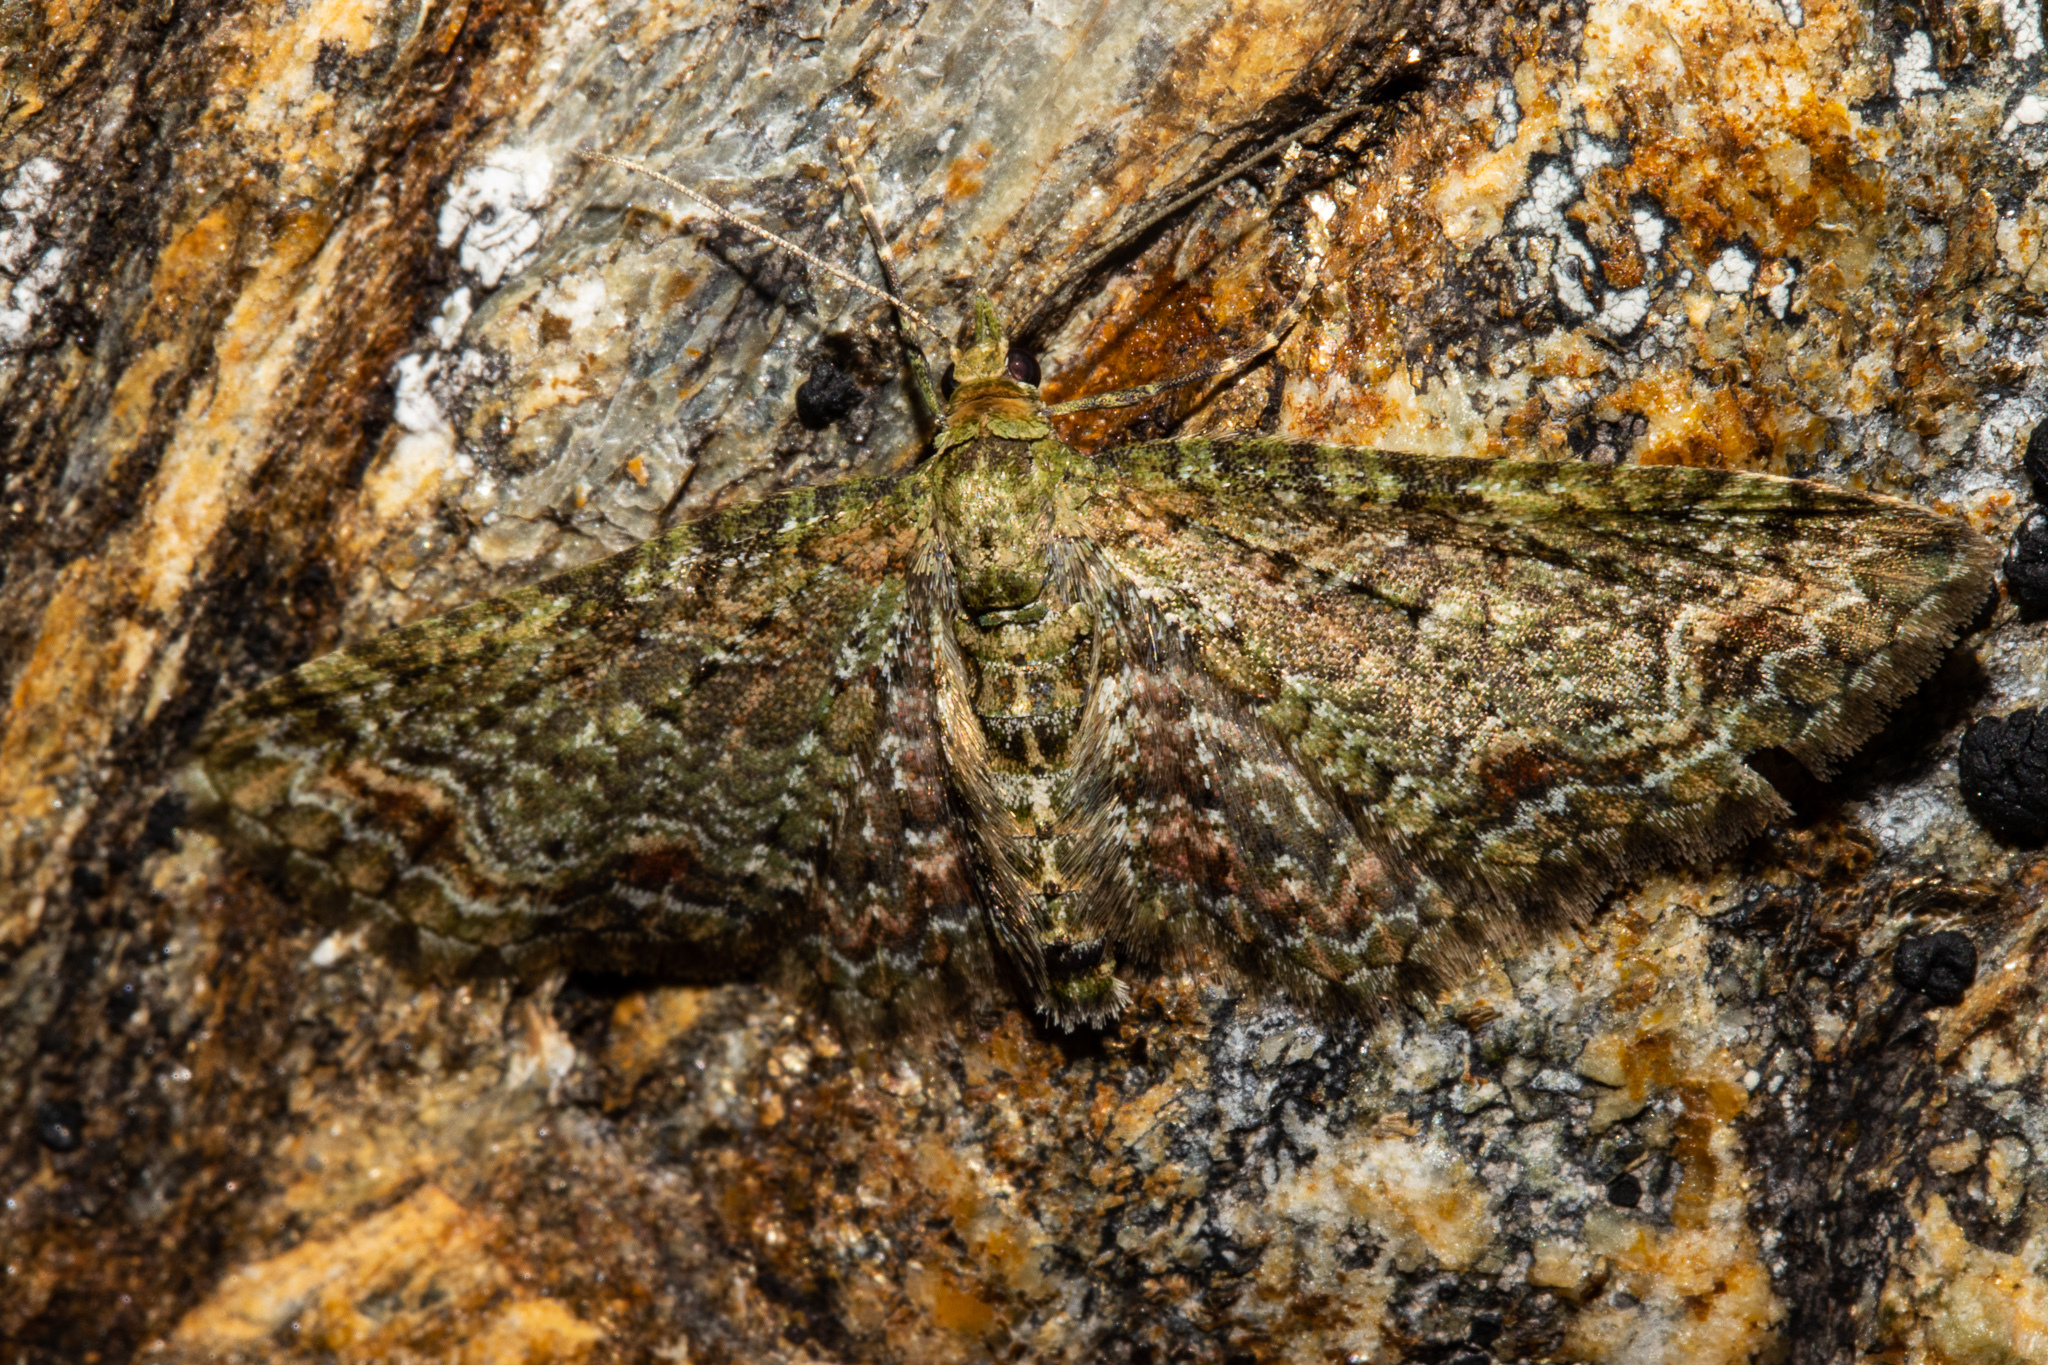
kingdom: Animalia
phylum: Arthropoda
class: Insecta
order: Lepidoptera
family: Geometridae
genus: Pasiphila
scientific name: Pasiphila bilineolata
